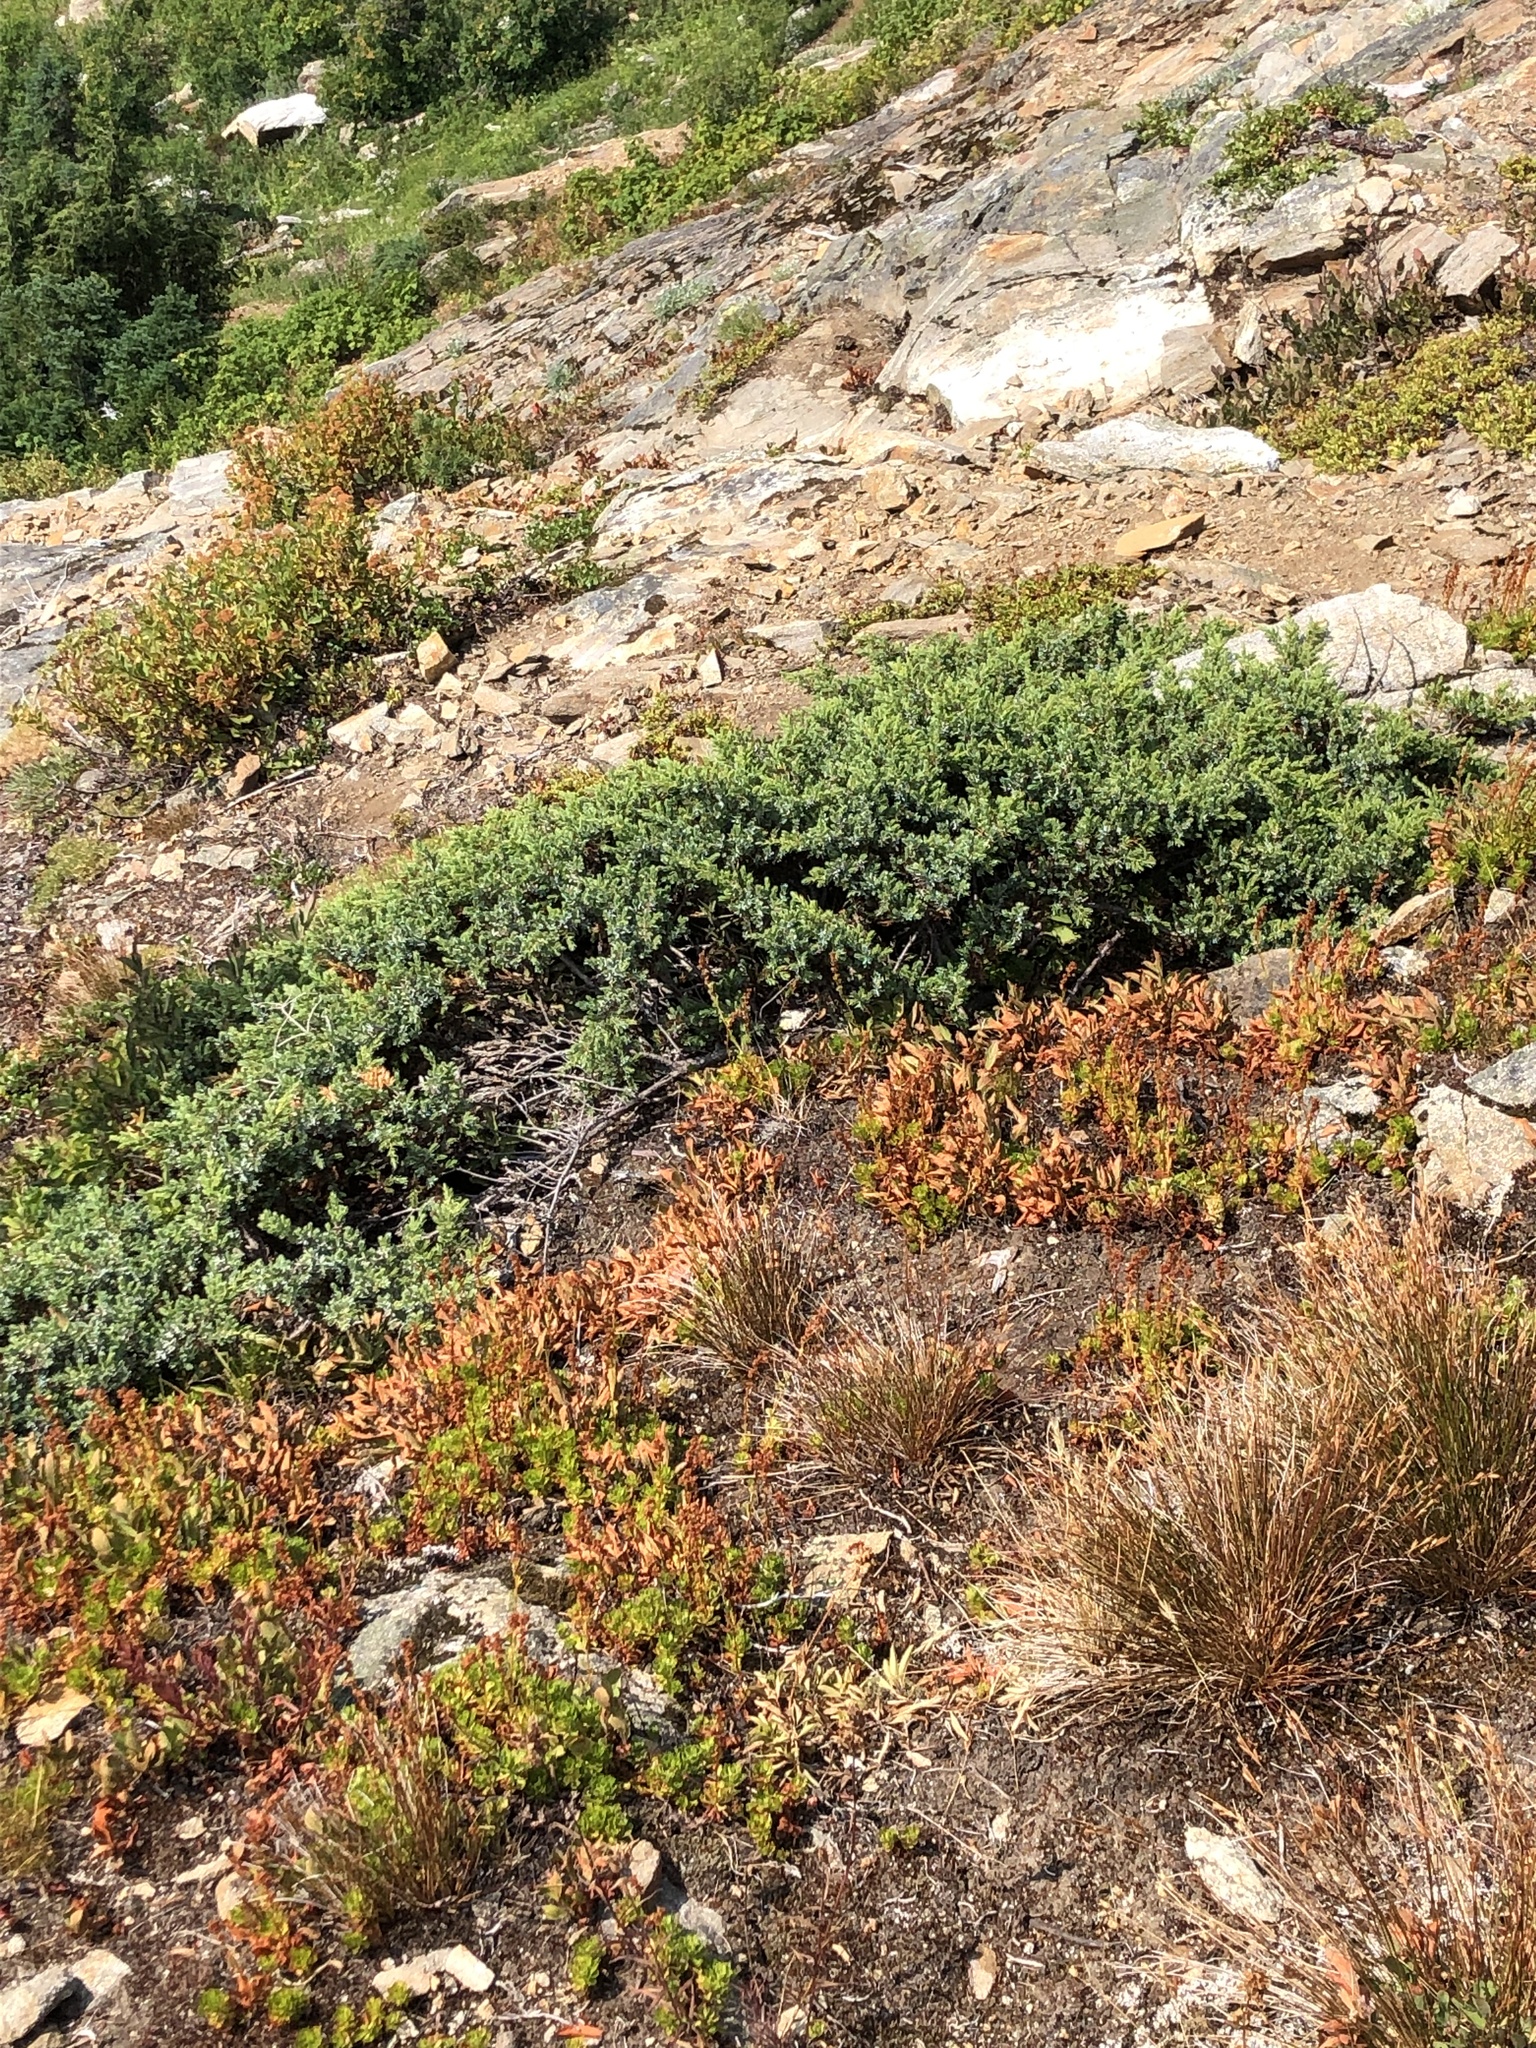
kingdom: Plantae
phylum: Tracheophyta
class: Pinopsida
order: Pinales
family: Cupressaceae
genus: Juniperus
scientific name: Juniperus communis
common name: Common juniper
